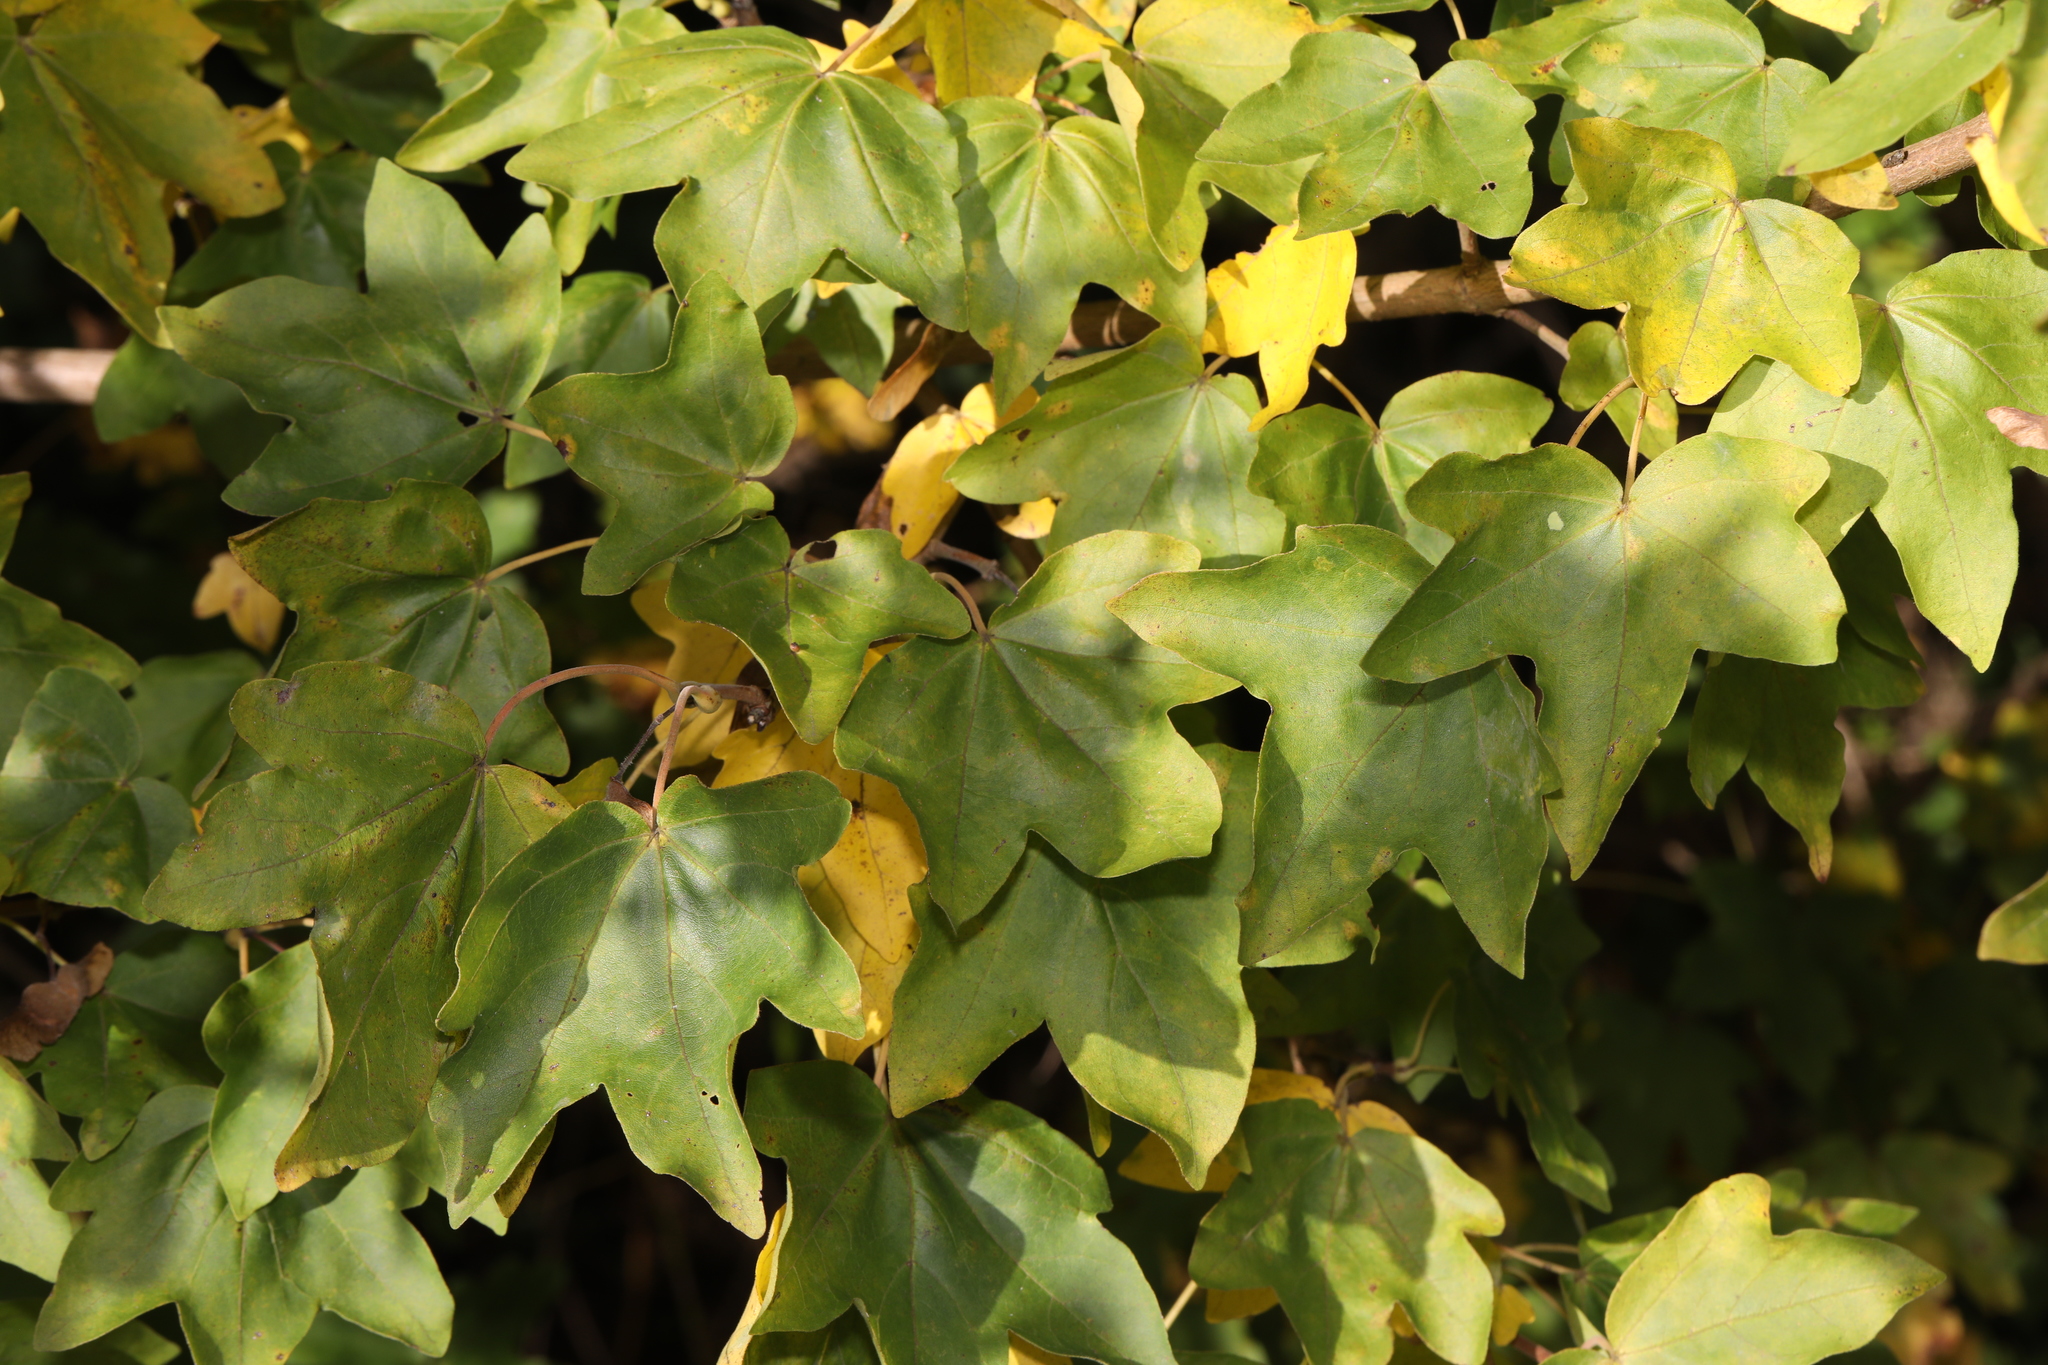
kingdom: Plantae
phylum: Tracheophyta
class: Magnoliopsida
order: Sapindales
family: Sapindaceae
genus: Acer
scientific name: Acer campestre
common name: Field maple
